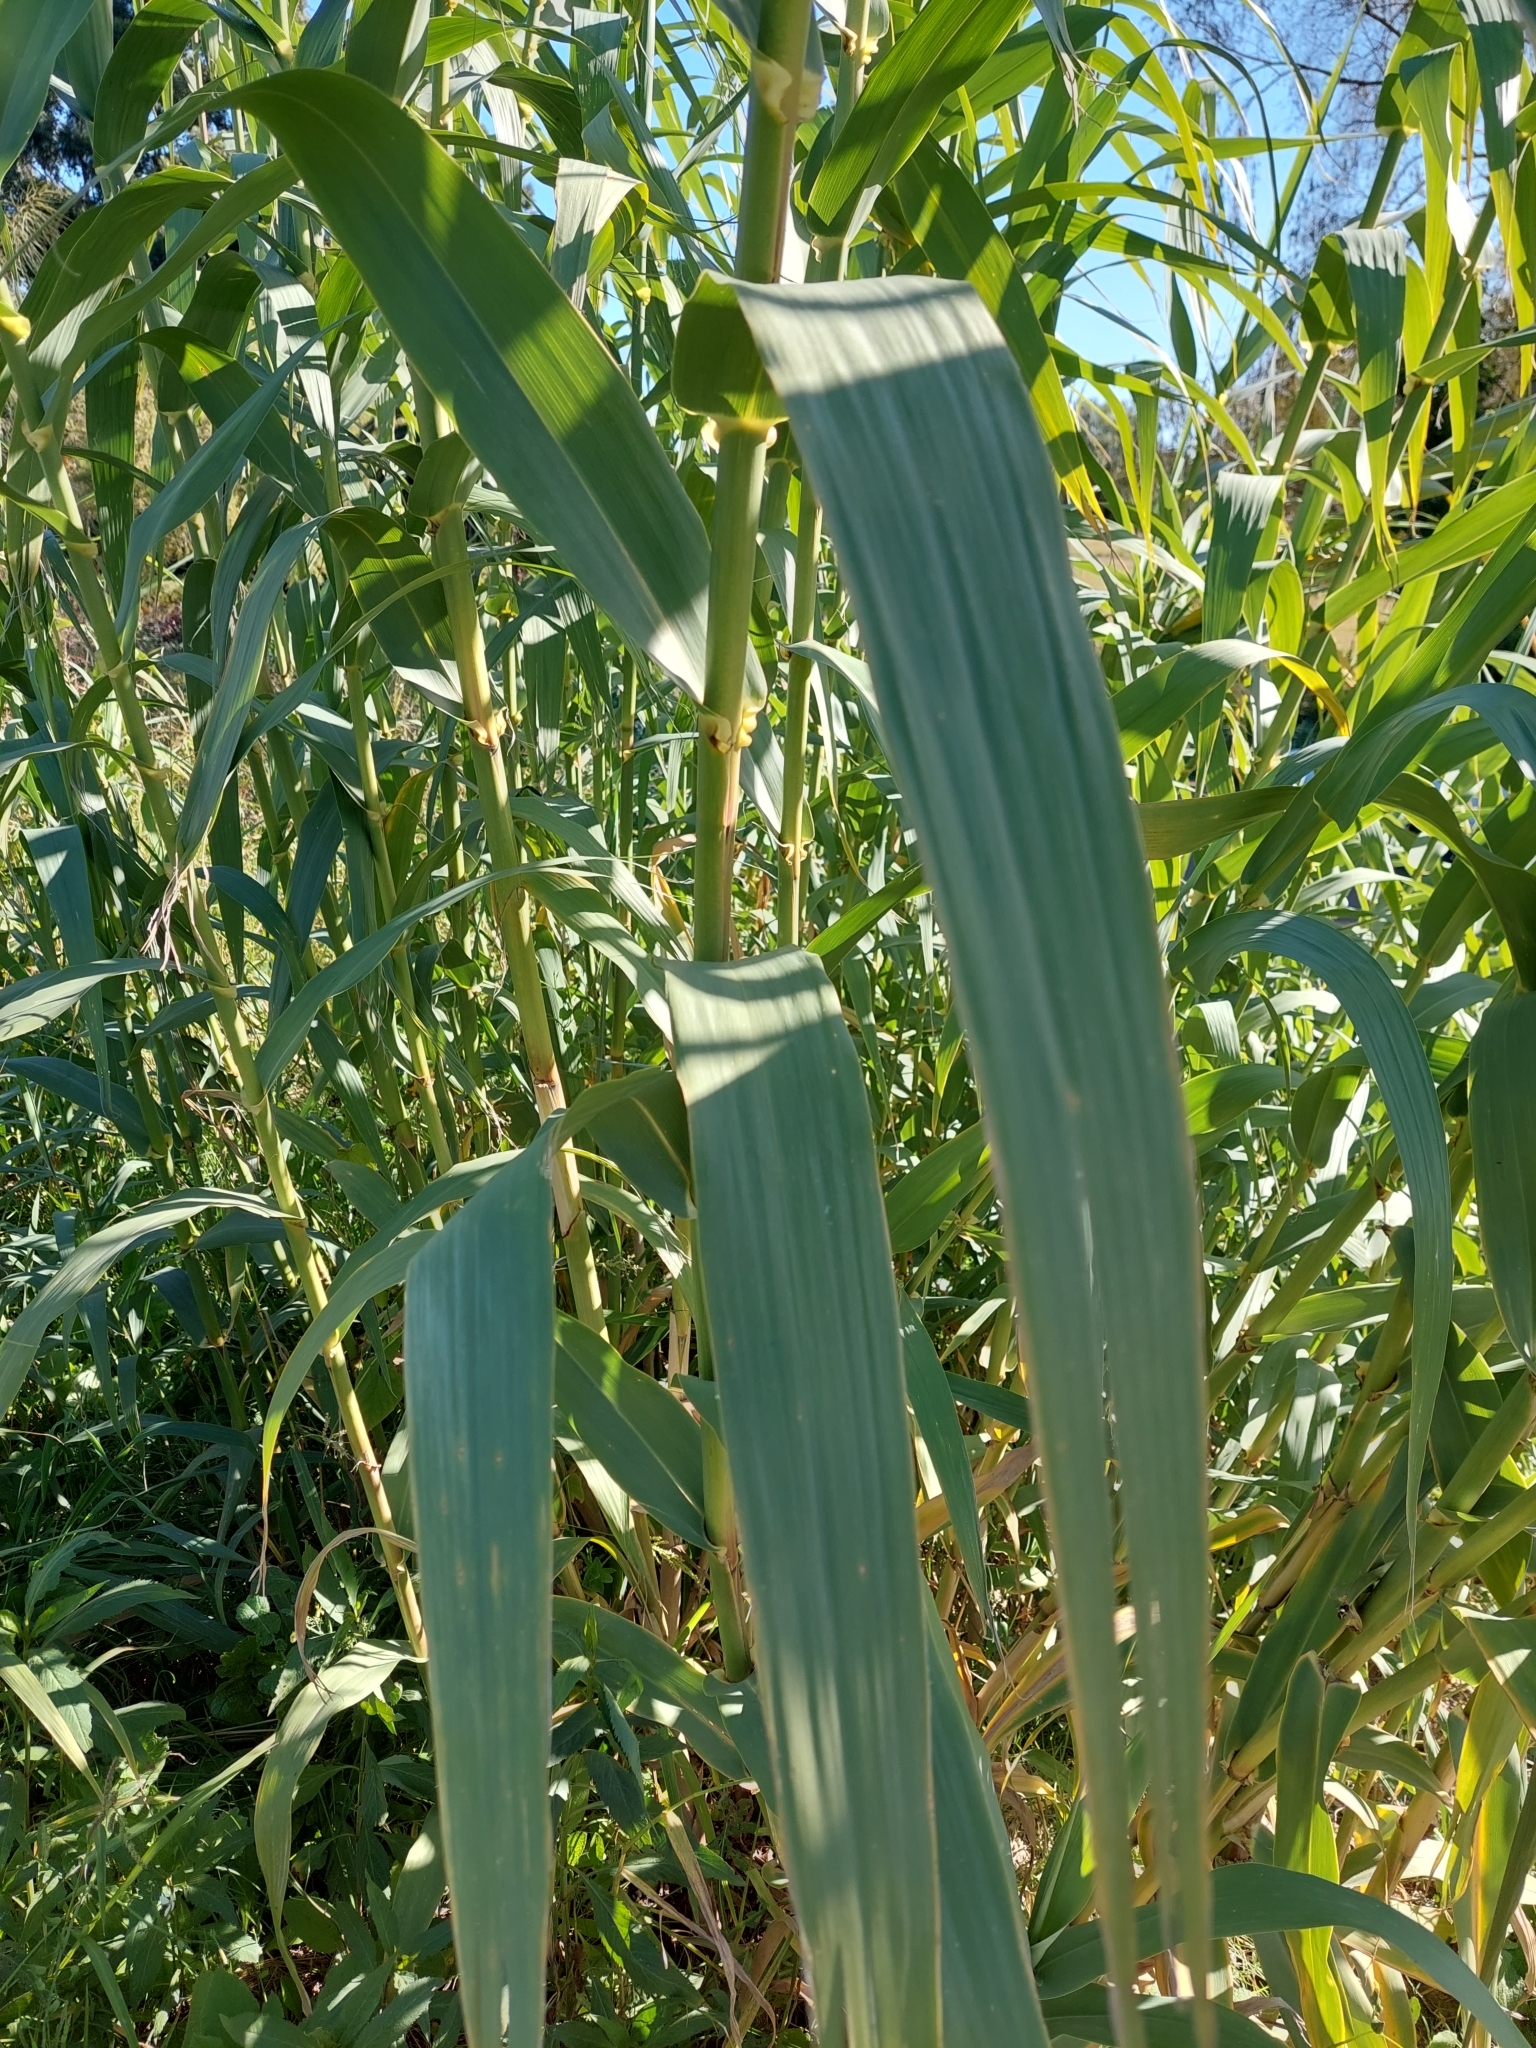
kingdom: Plantae
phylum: Tracheophyta
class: Liliopsida
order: Poales
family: Poaceae
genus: Arundo
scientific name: Arundo donax
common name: Giant reed
